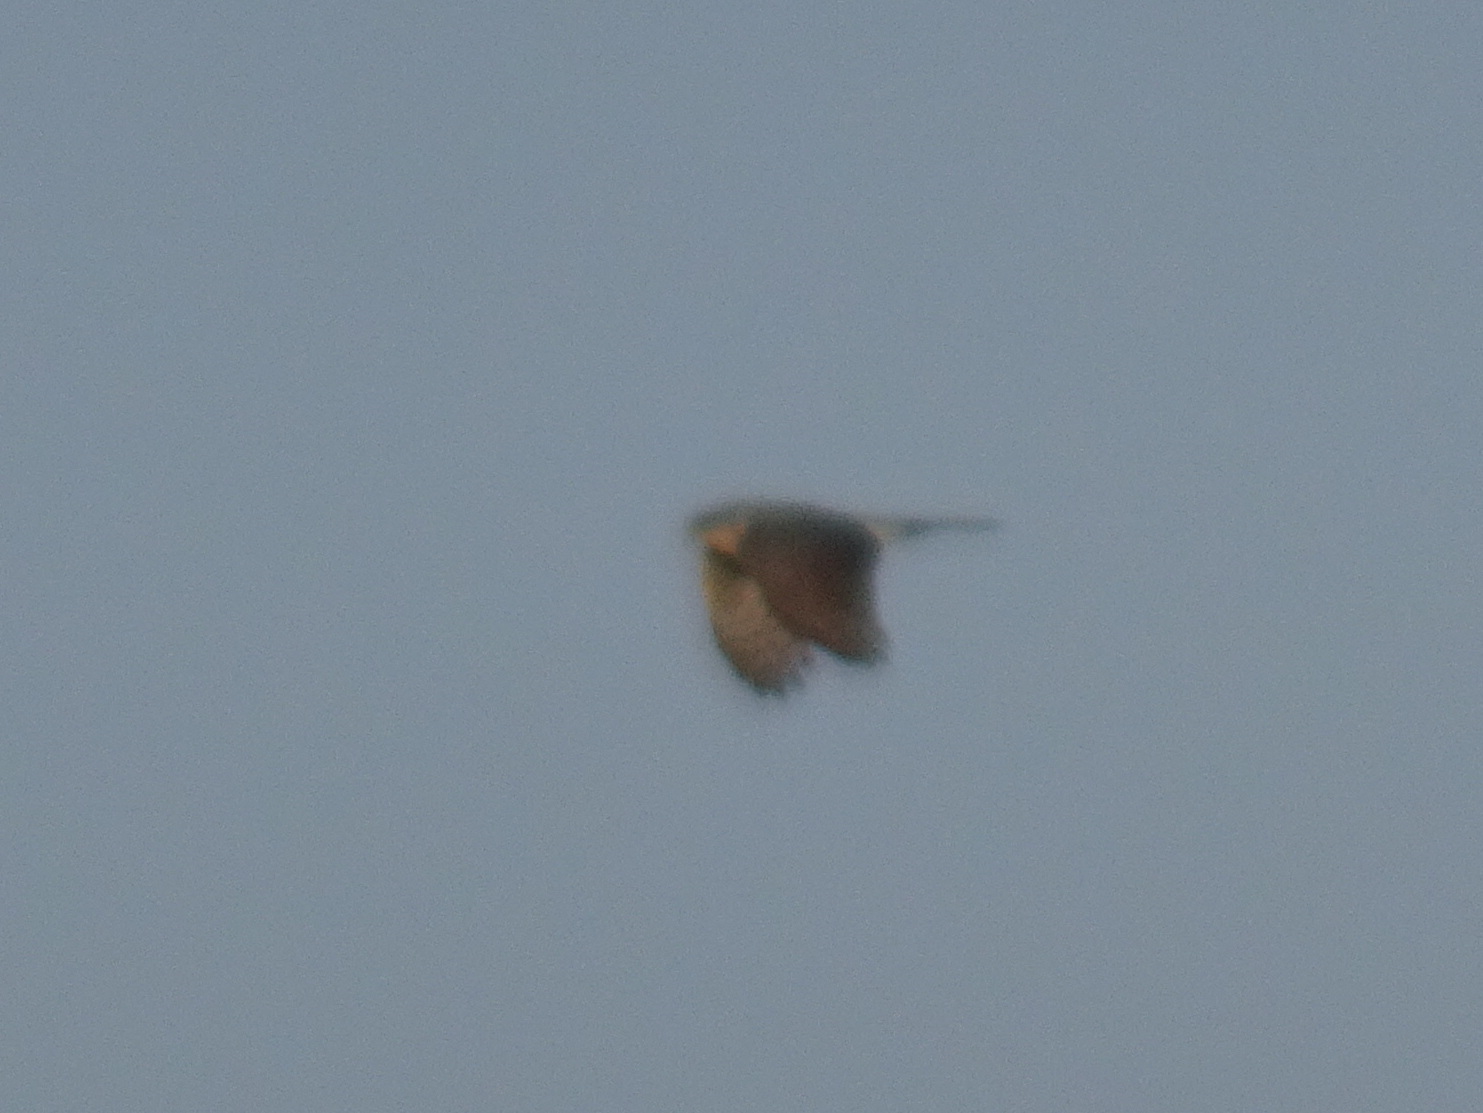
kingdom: Animalia
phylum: Chordata
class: Aves
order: Accipitriformes
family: Accipitridae
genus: Accipiter
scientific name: Accipiter
